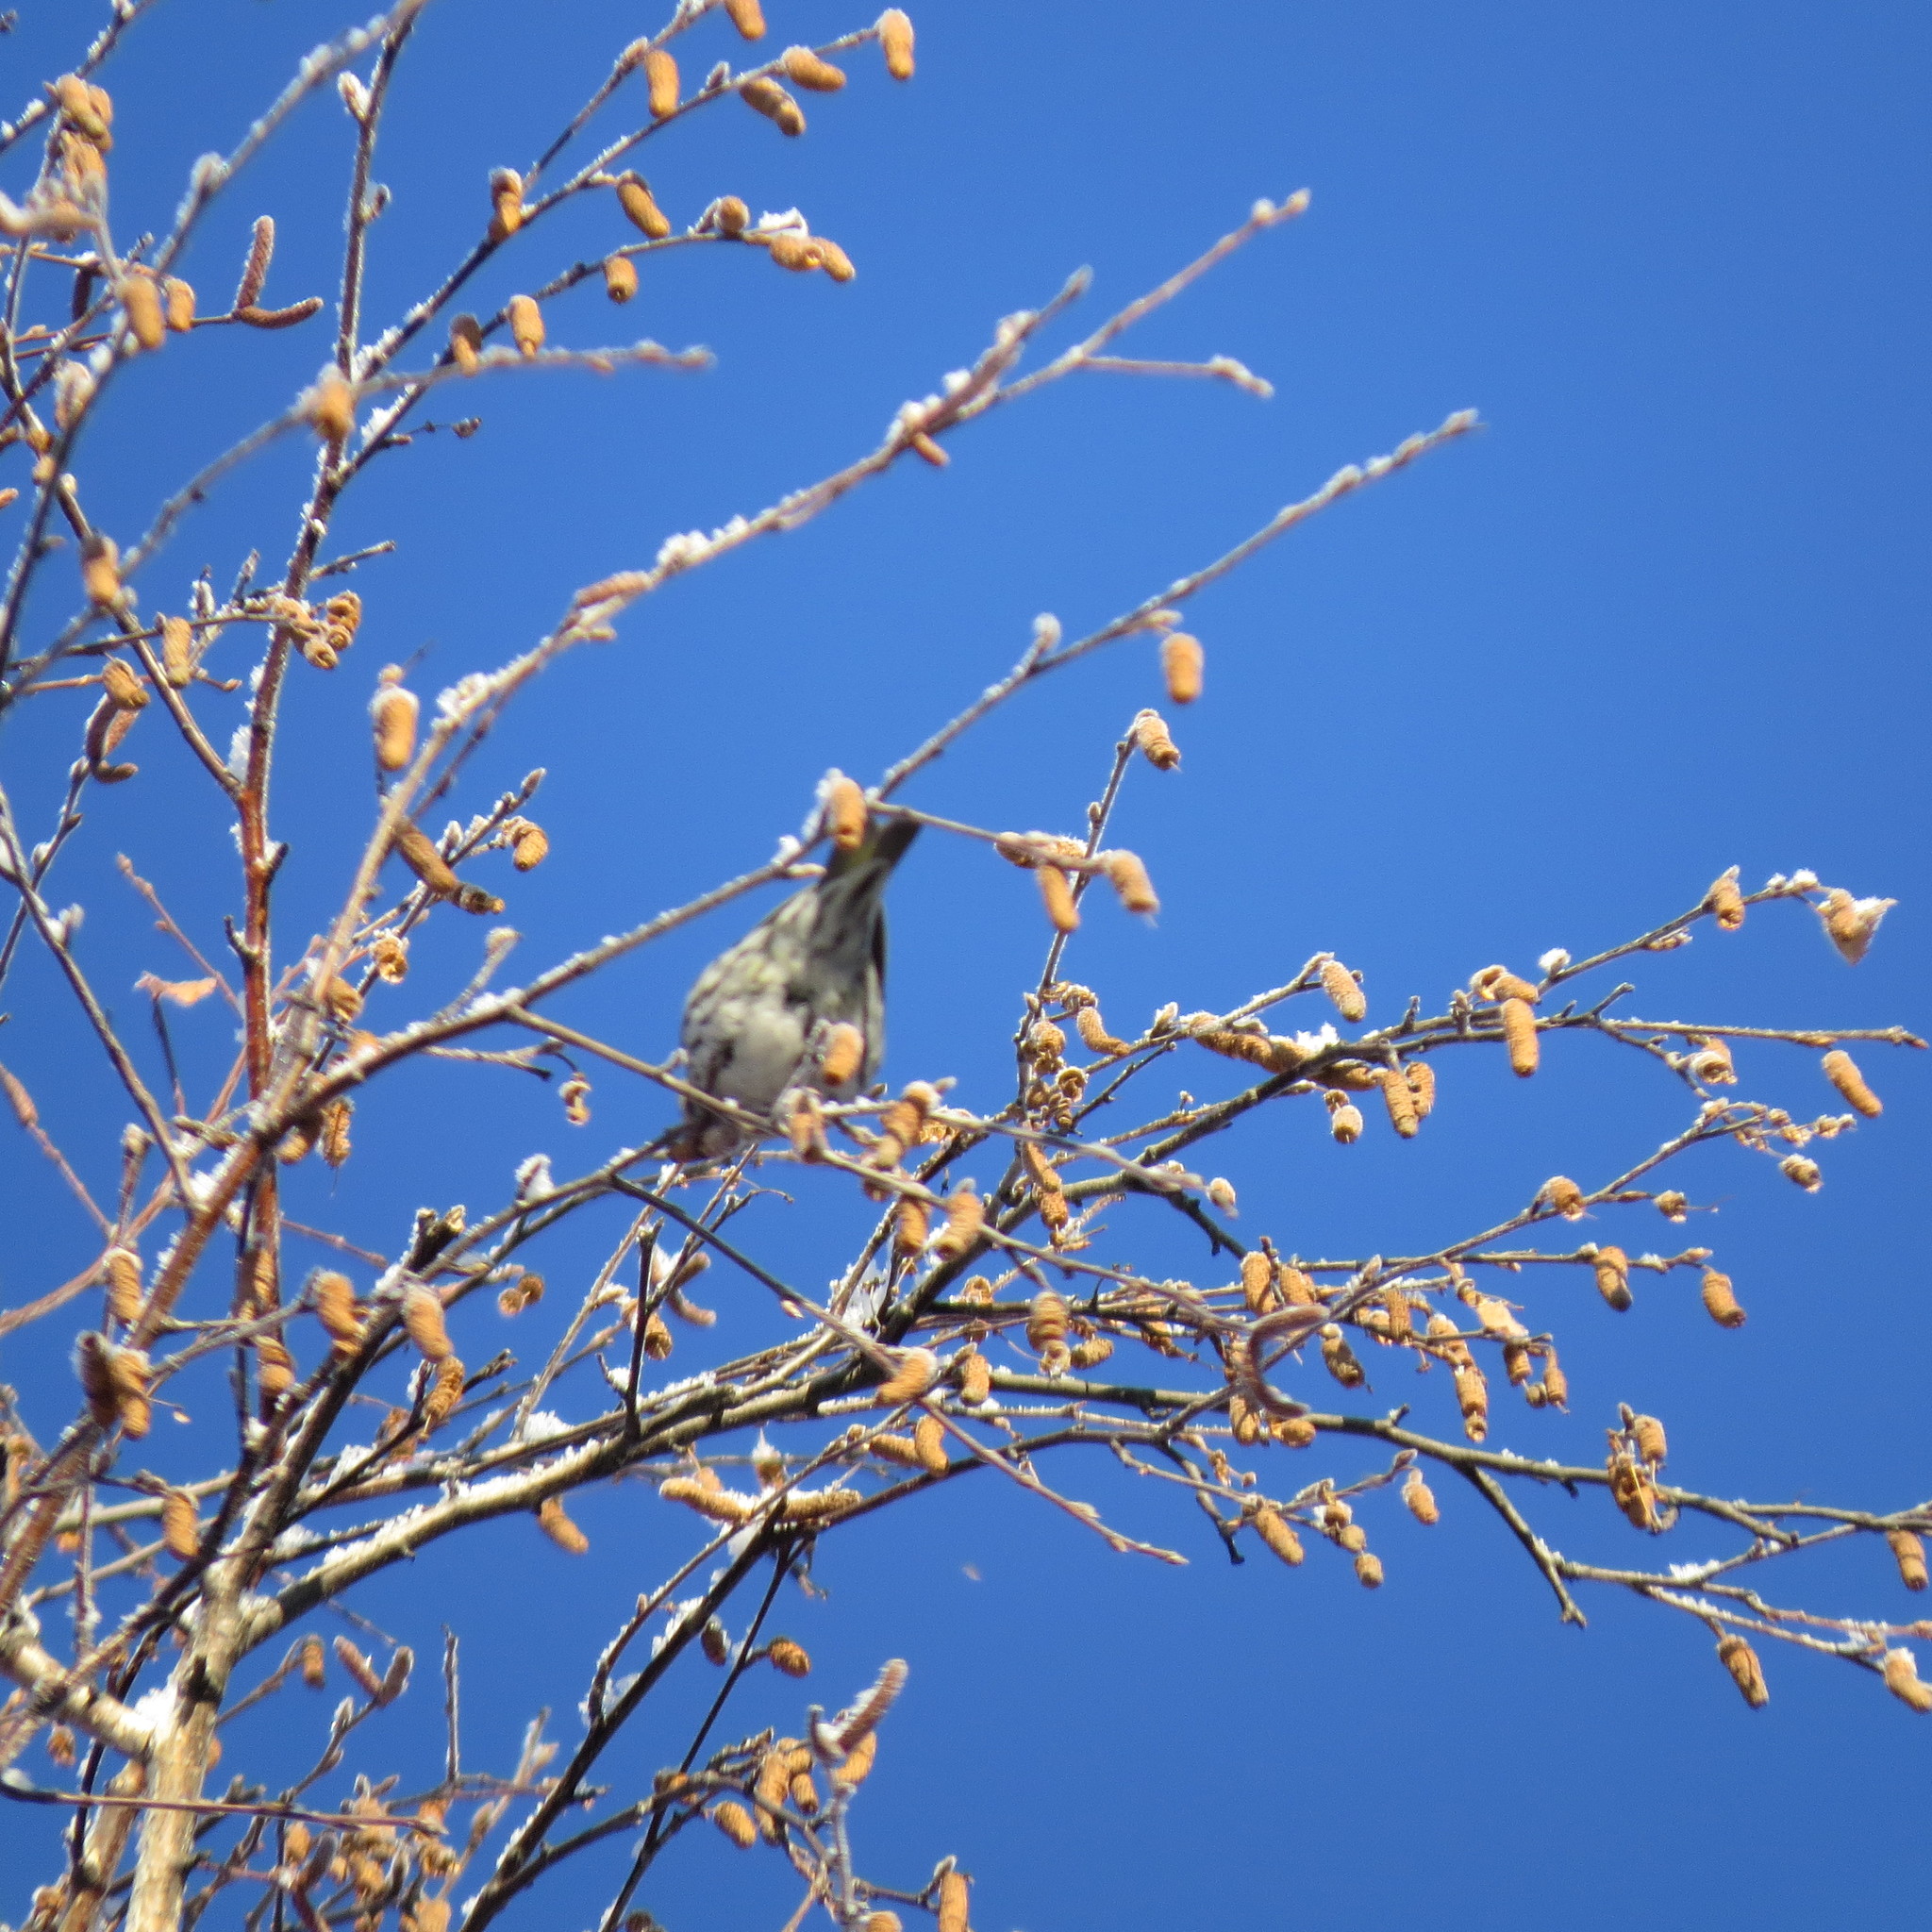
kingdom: Animalia
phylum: Chordata
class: Aves
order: Passeriformes
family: Fringillidae
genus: Spinus
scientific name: Spinus spinus
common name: Eurasian siskin
